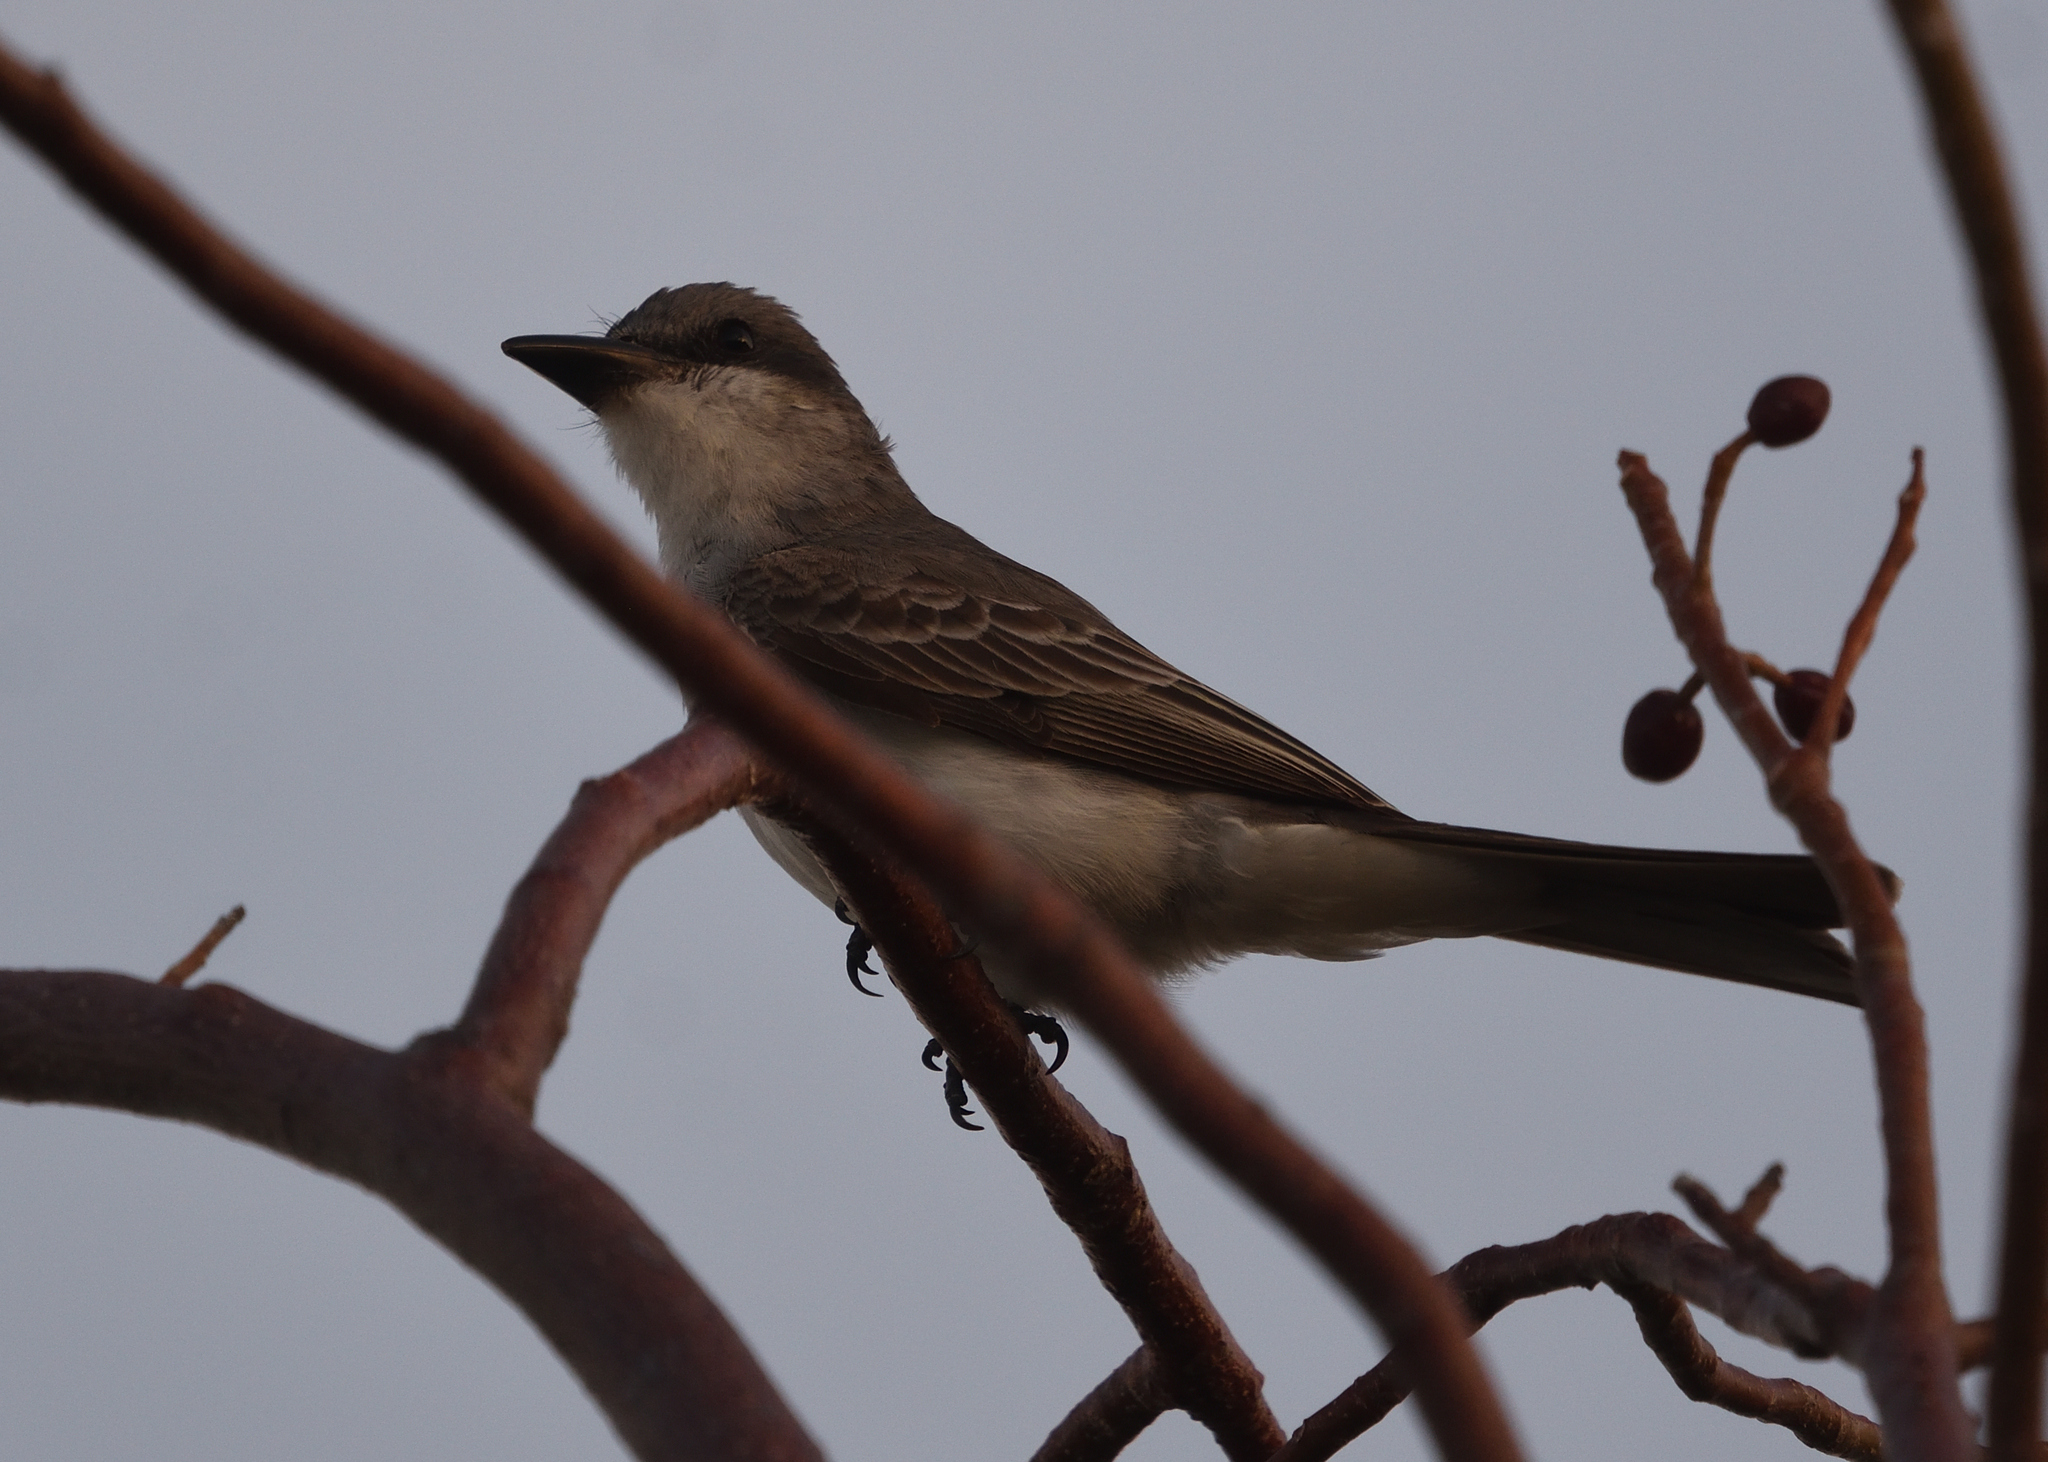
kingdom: Animalia
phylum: Chordata
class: Aves
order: Passeriformes
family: Tyrannidae
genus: Tyrannus
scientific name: Tyrannus dominicensis
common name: Gray kingbird
